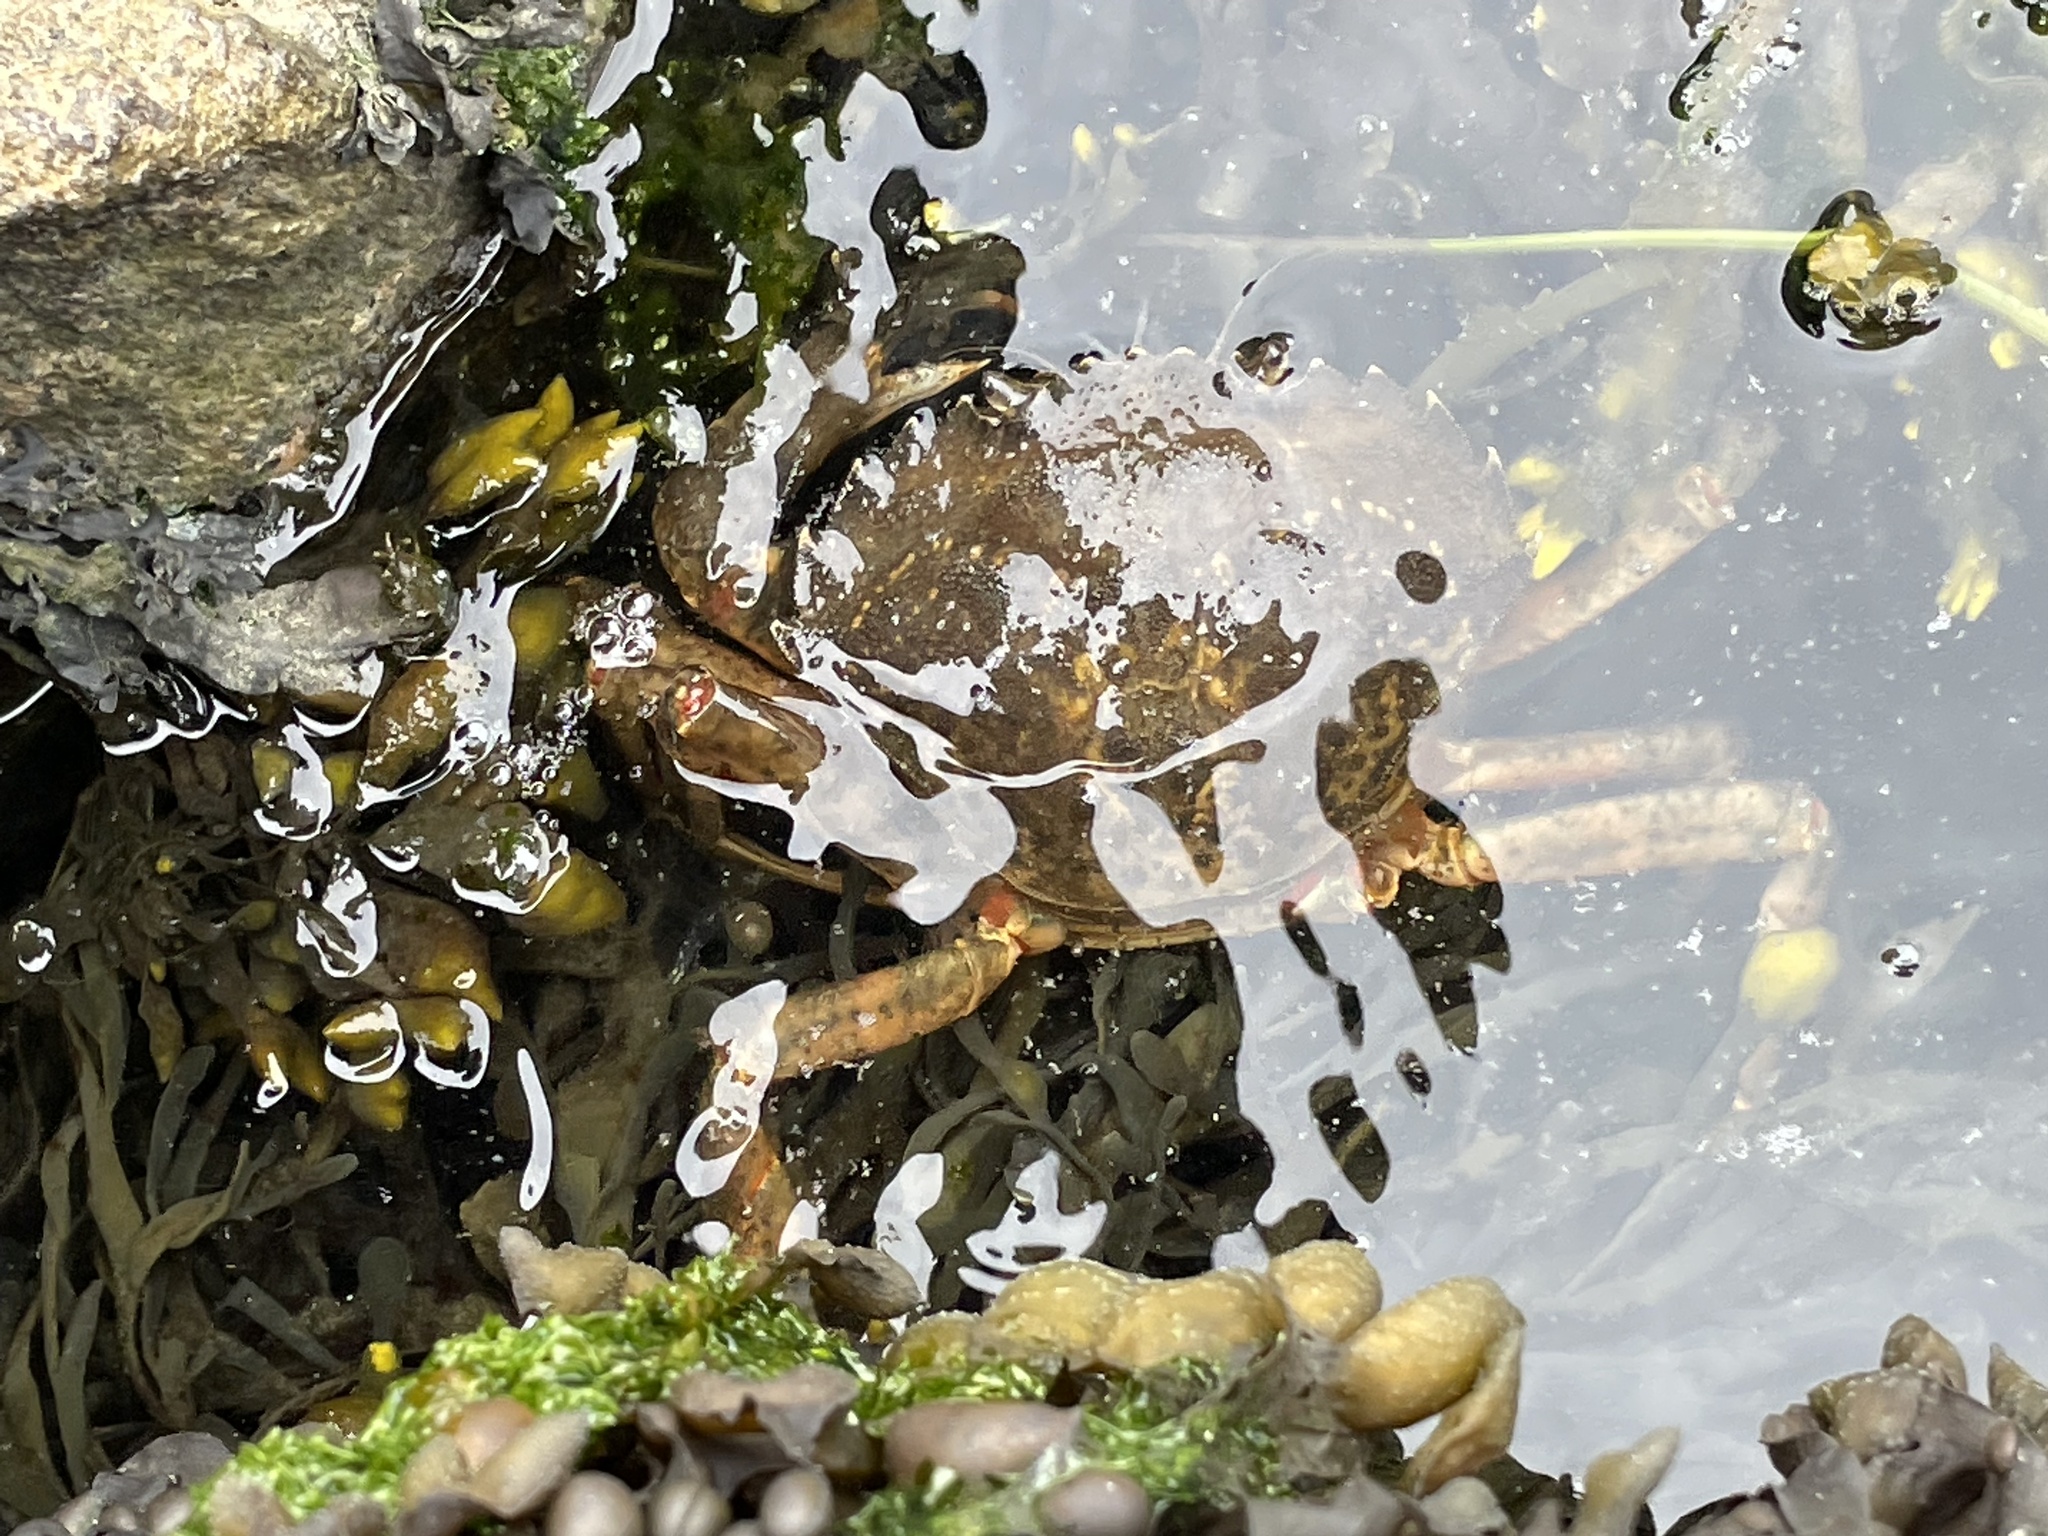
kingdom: Animalia
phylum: Arthropoda
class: Malacostraca
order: Decapoda
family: Carcinidae
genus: Carcinus
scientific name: Carcinus maenas
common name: European green crab
